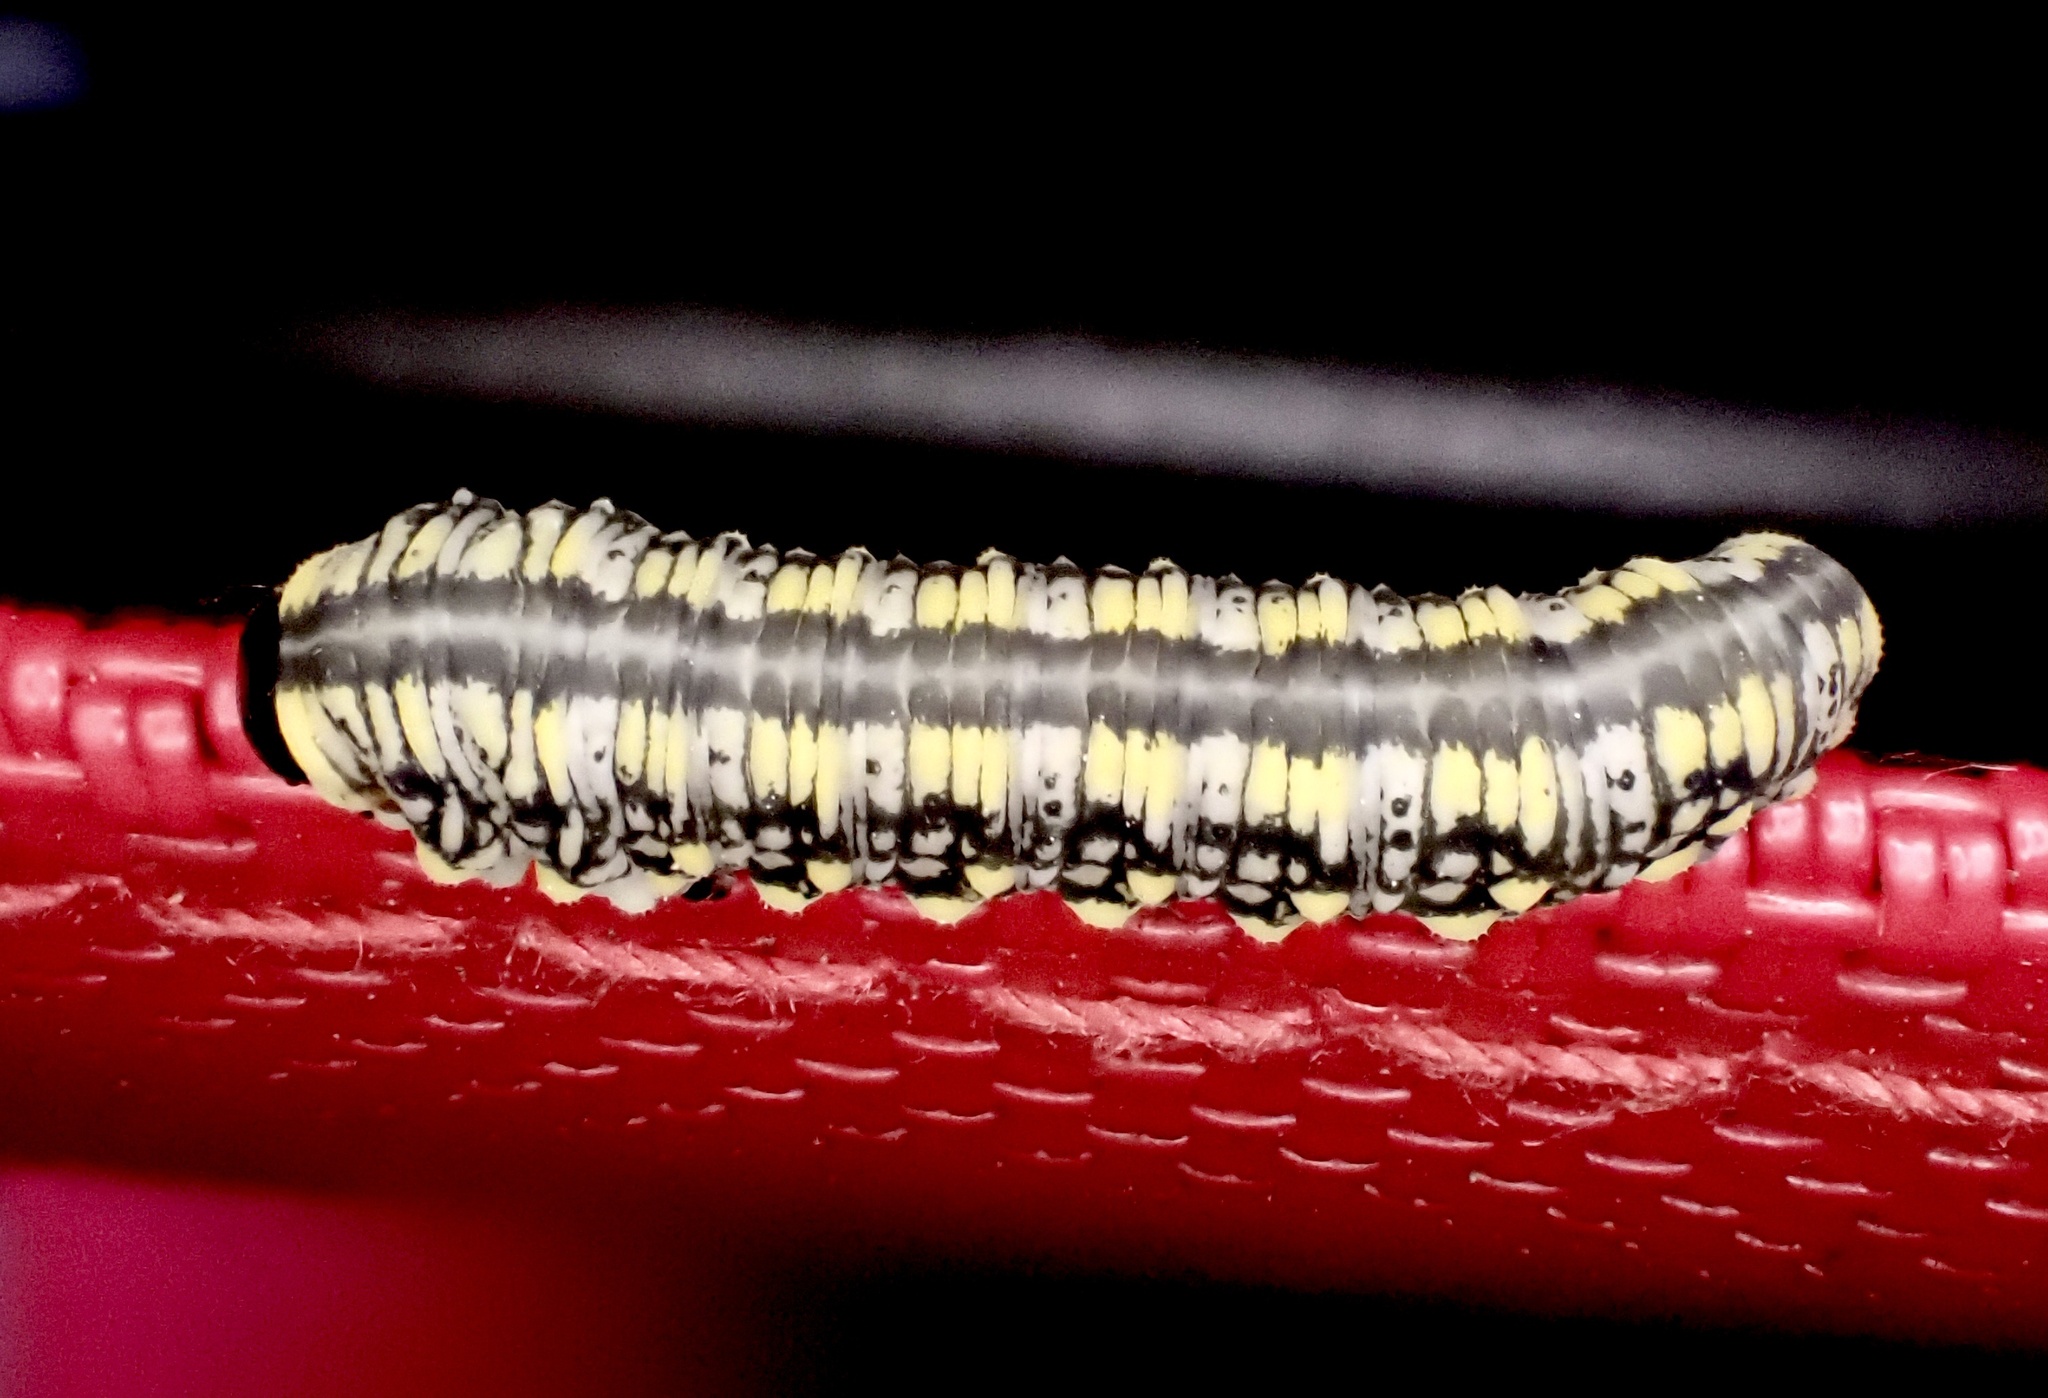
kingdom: Animalia
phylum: Arthropoda
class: Insecta
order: Hymenoptera
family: Diprionidae
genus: Diprion
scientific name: Diprion similis
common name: Pine sawfly
